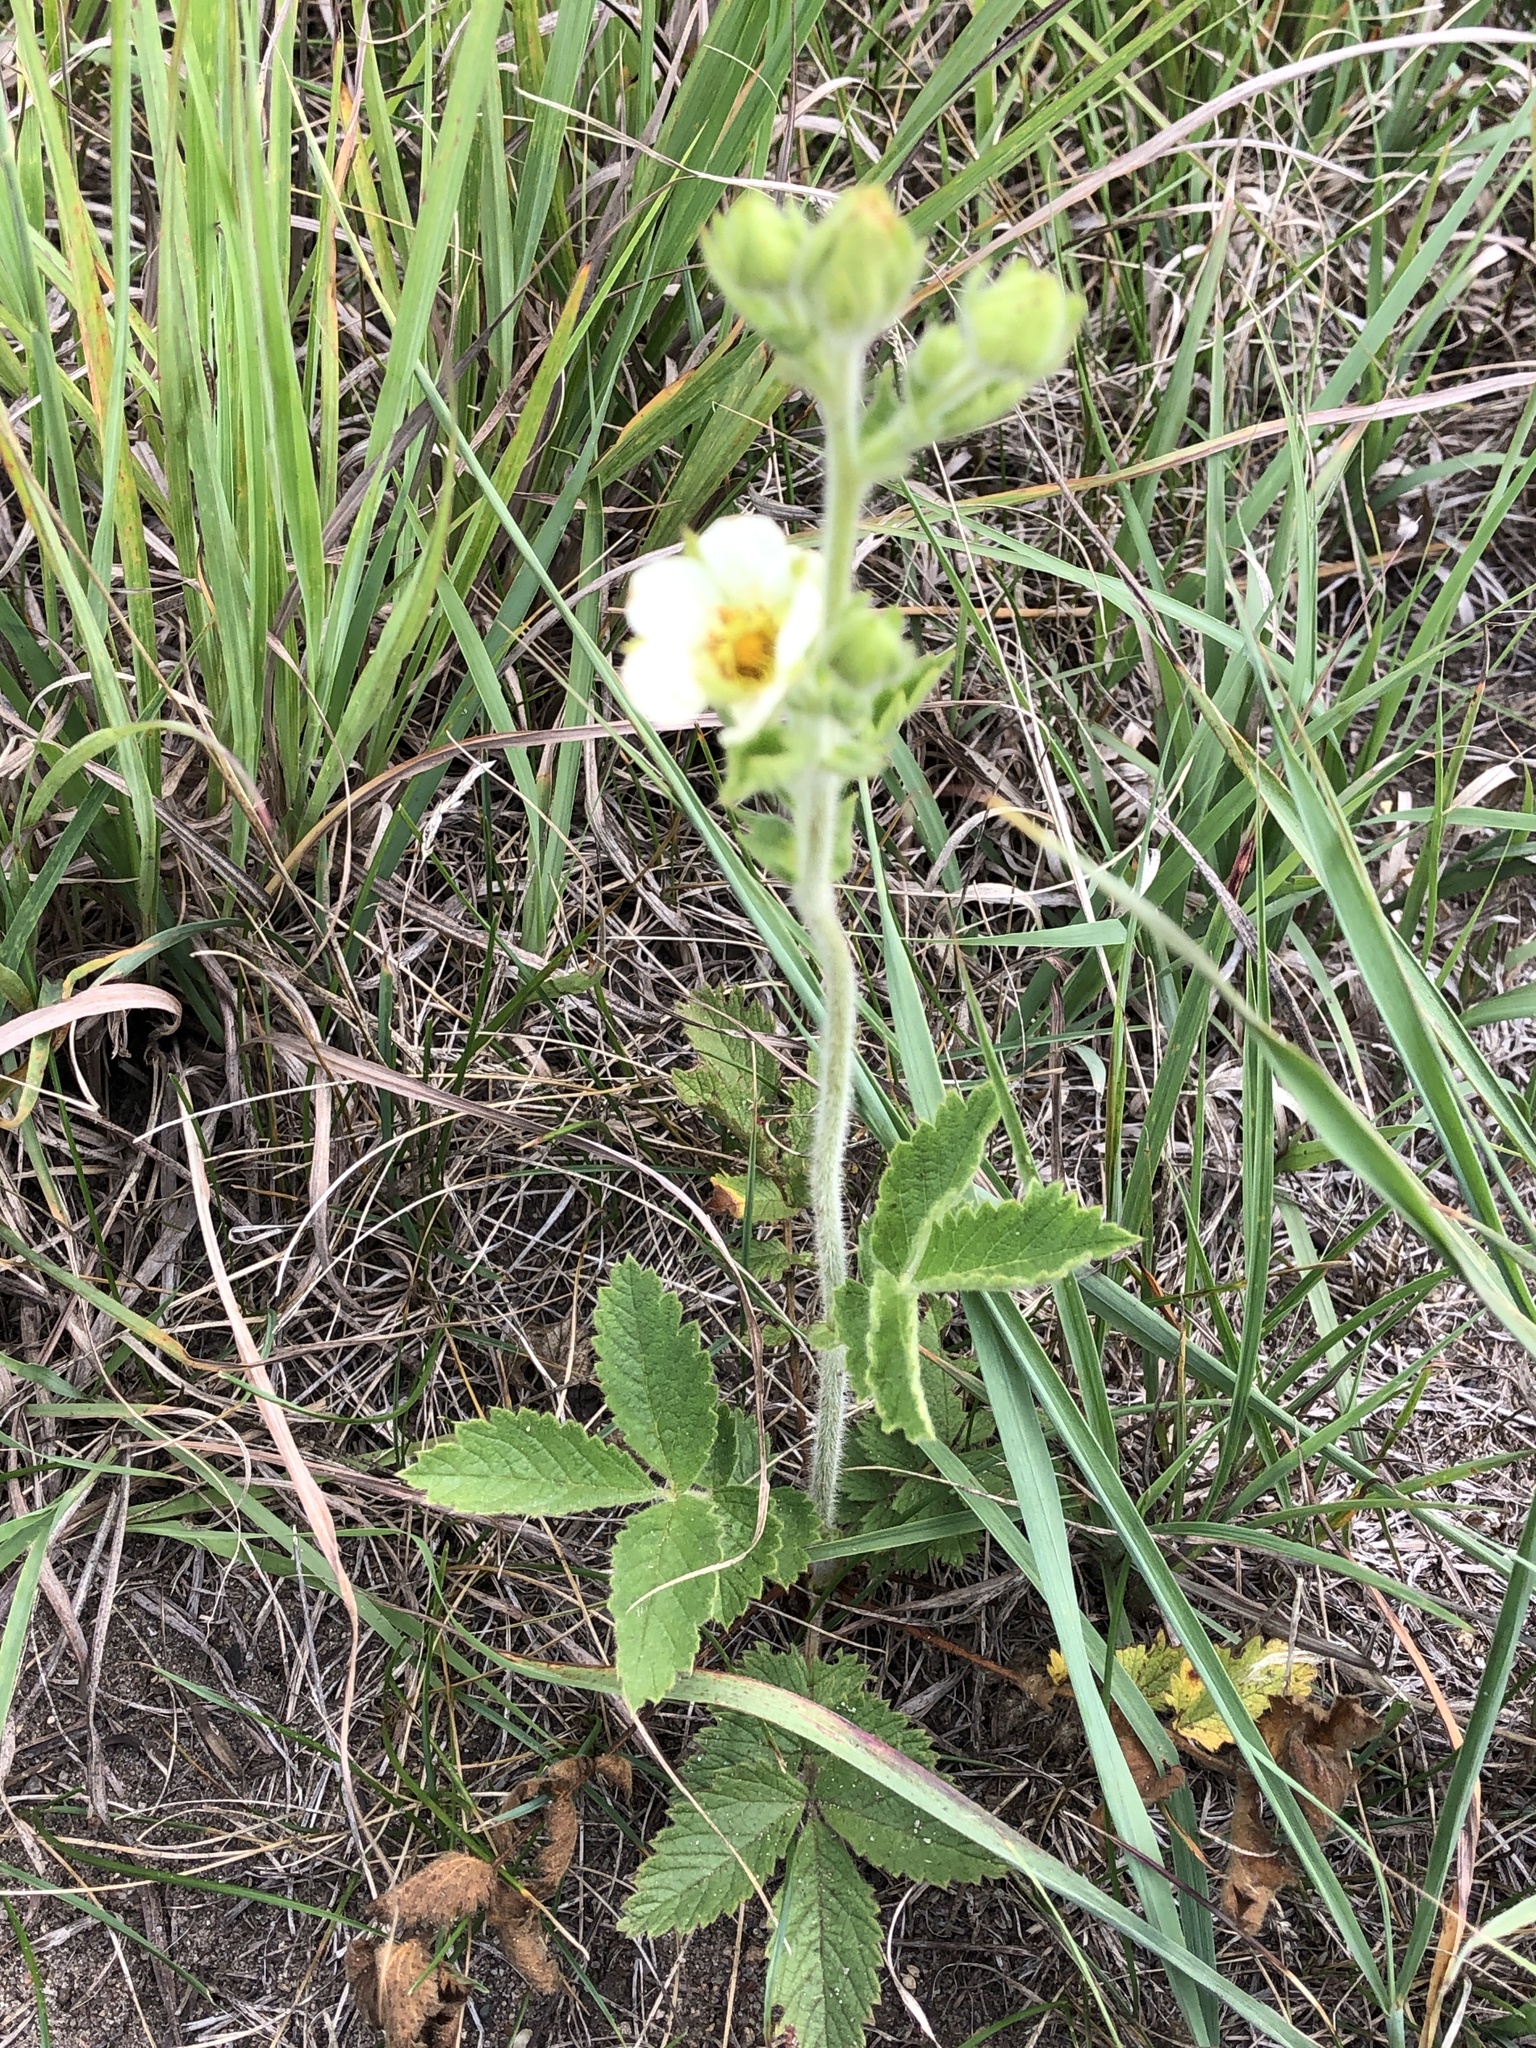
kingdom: Plantae
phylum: Tracheophyta
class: Magnoliopsida
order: Rosales
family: Rosaceae
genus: Drymocallis
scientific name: Drymocallis arguta
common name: Tall cinquefoil
